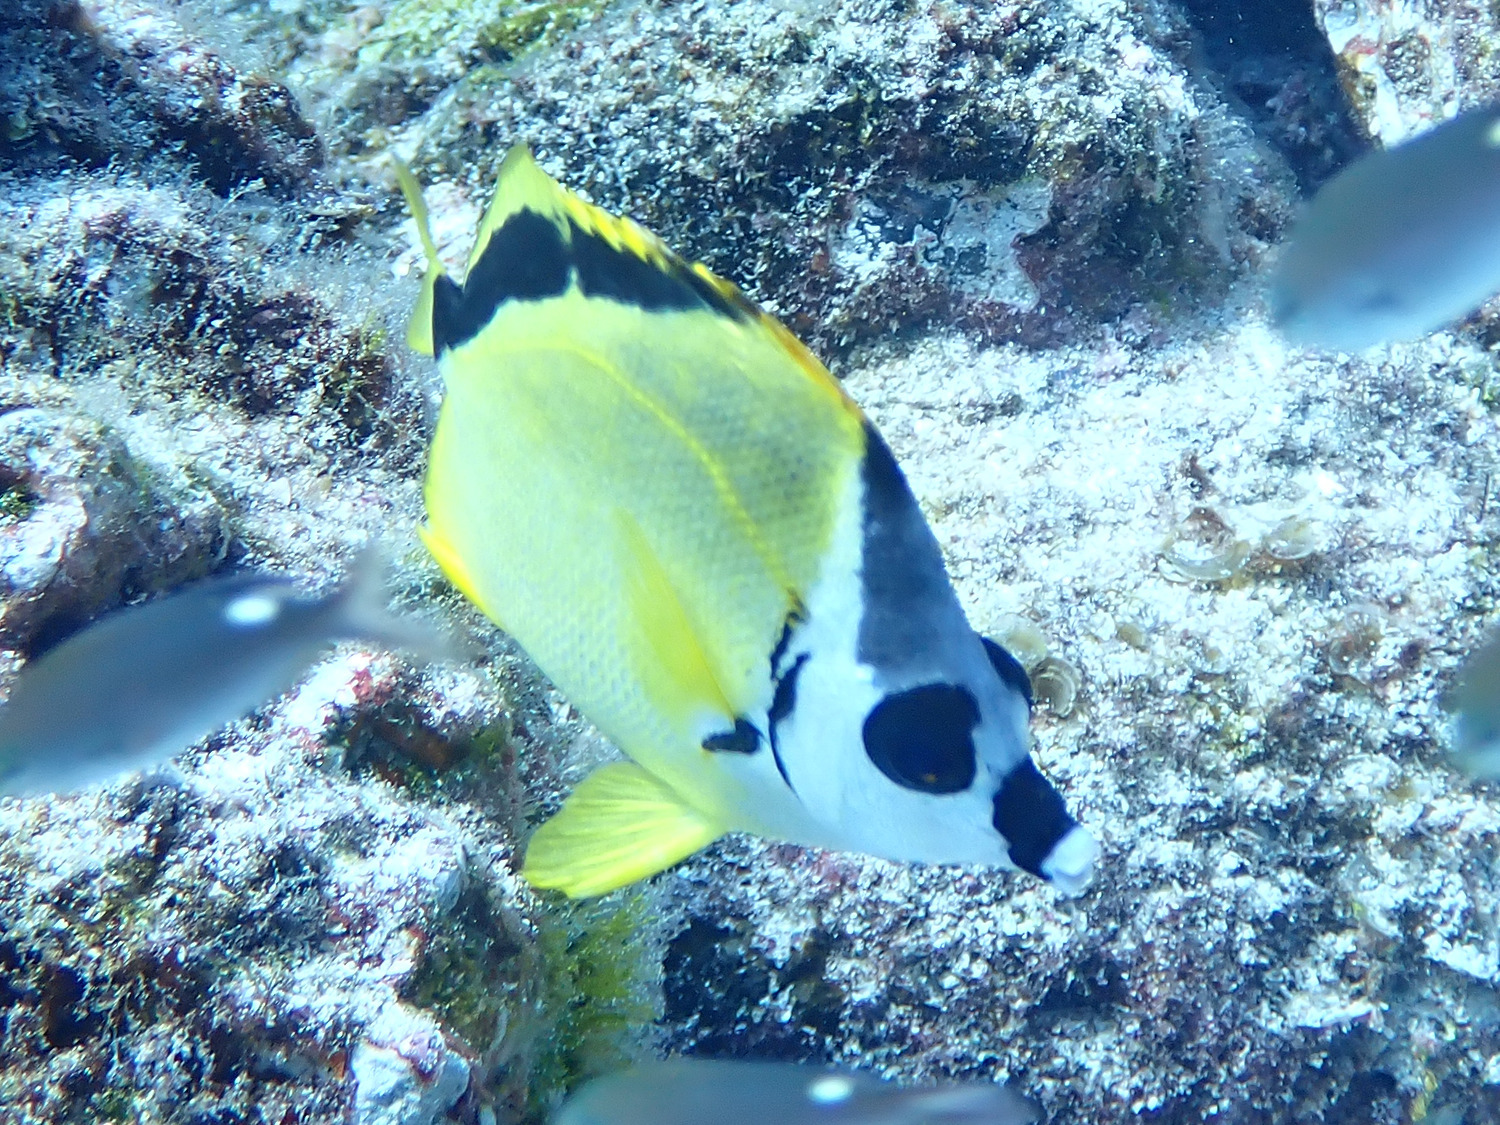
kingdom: Animalia
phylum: Chordata
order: Perciformes
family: Chaetodontidae
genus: Johnrandallia
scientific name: Johnrandallia nigrirostris
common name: Barberfish
